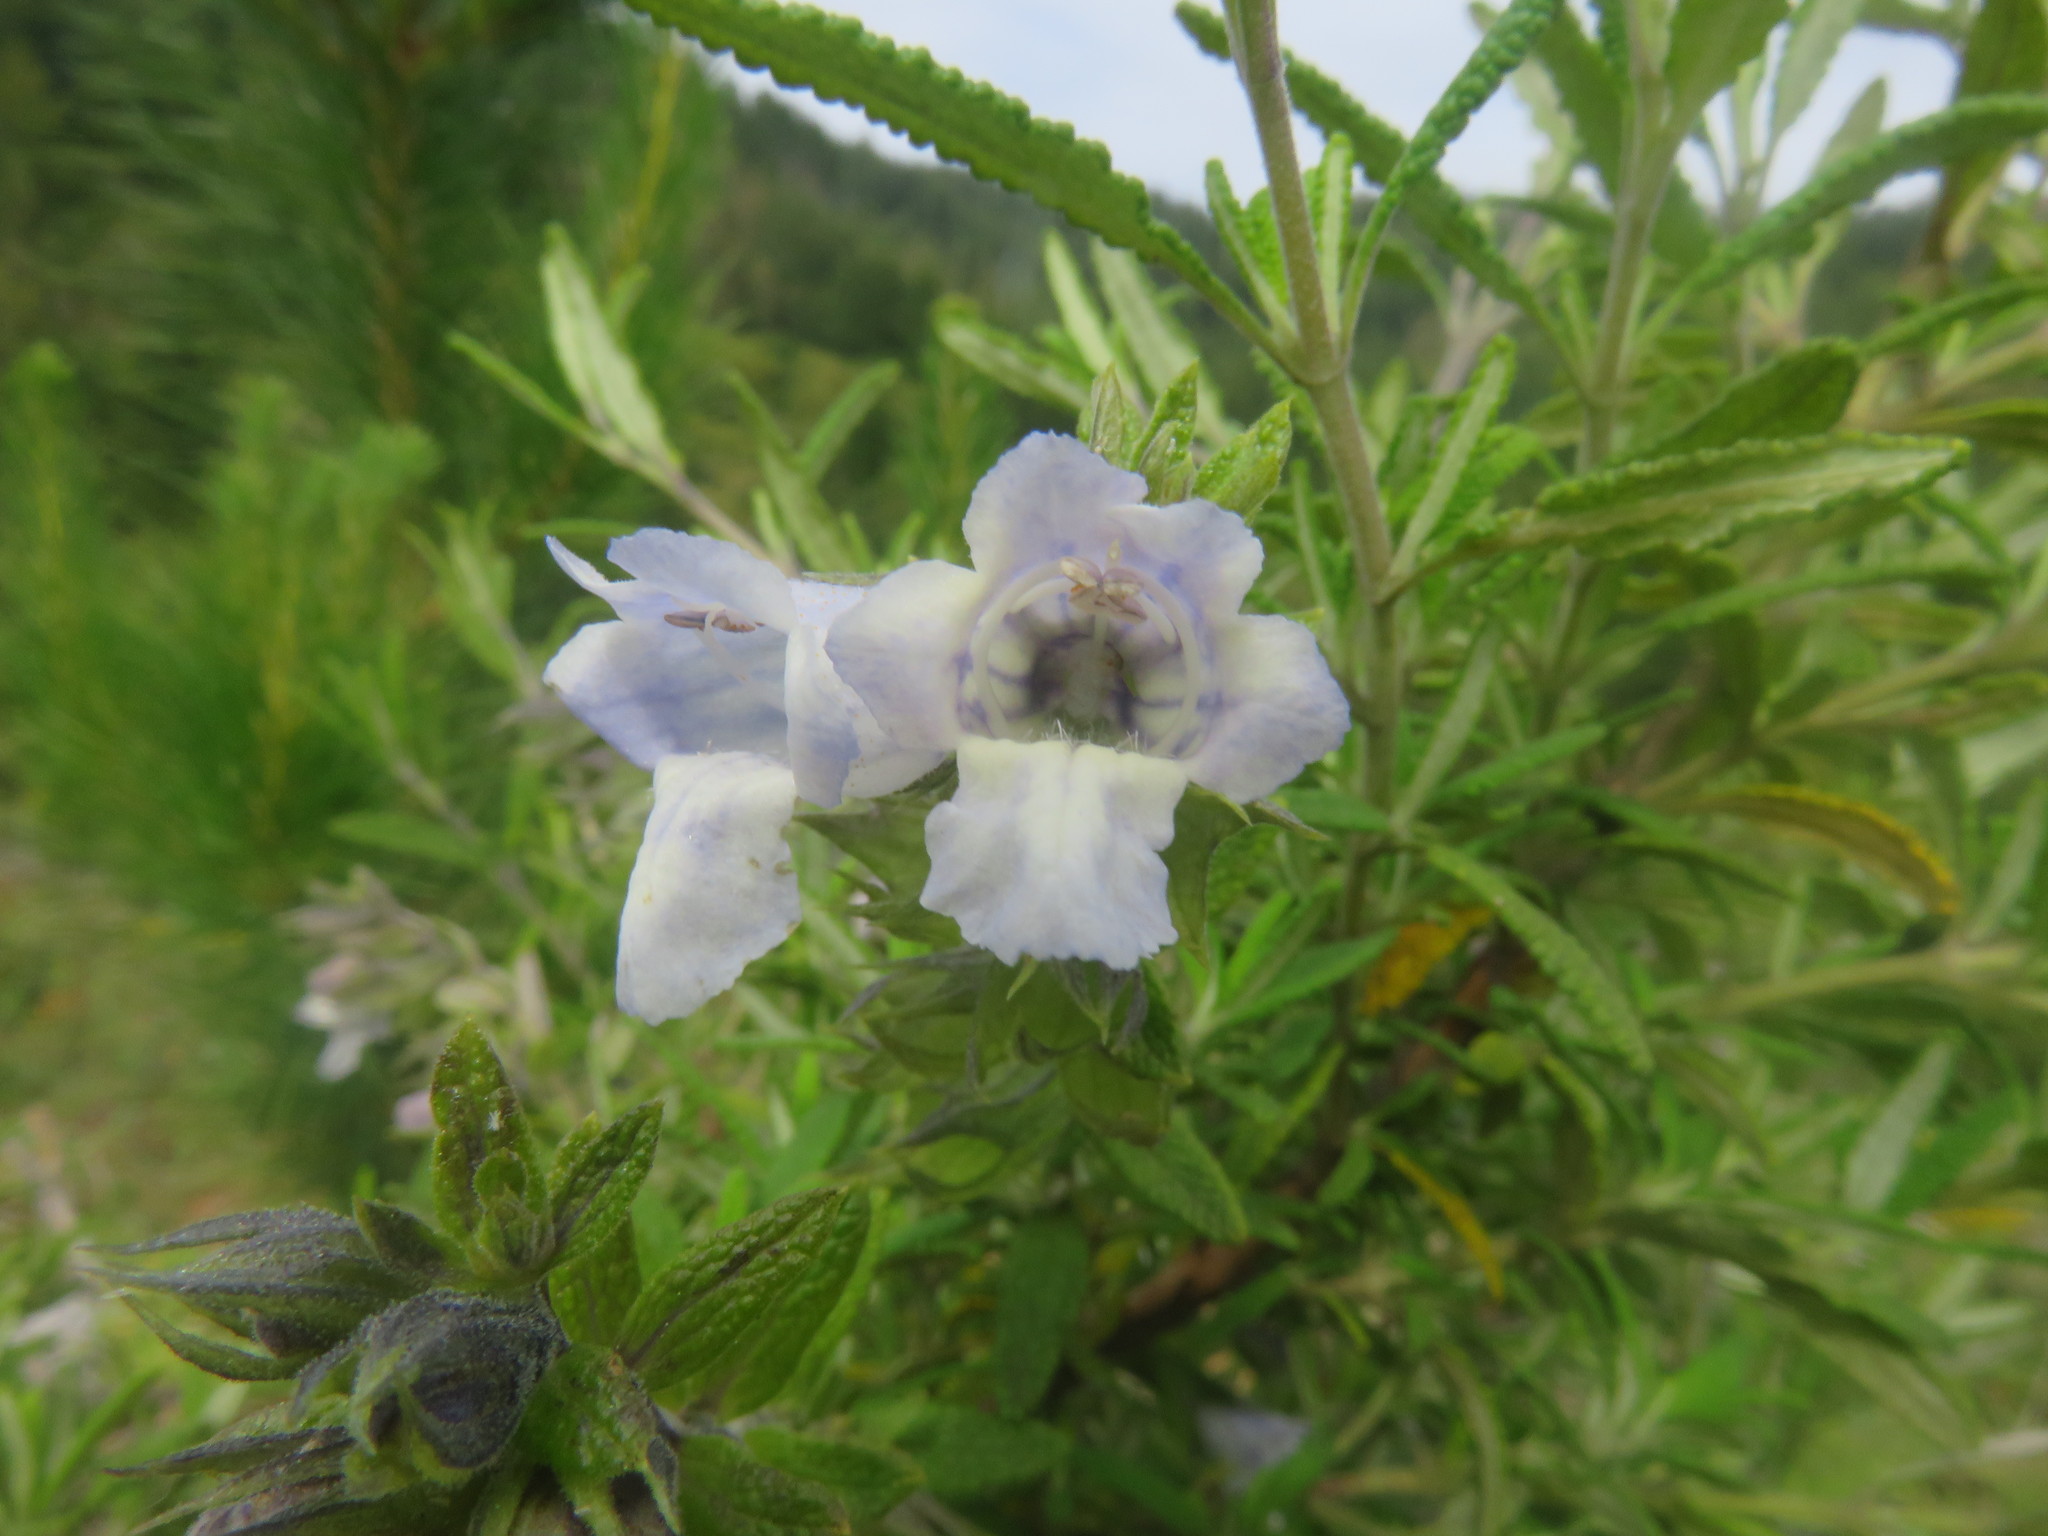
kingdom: Plantae
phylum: Tracheophyta
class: Magnoliopsida
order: Lamiales
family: Lamiaceae
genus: Lepechinia
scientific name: Lepechinia chilensis
